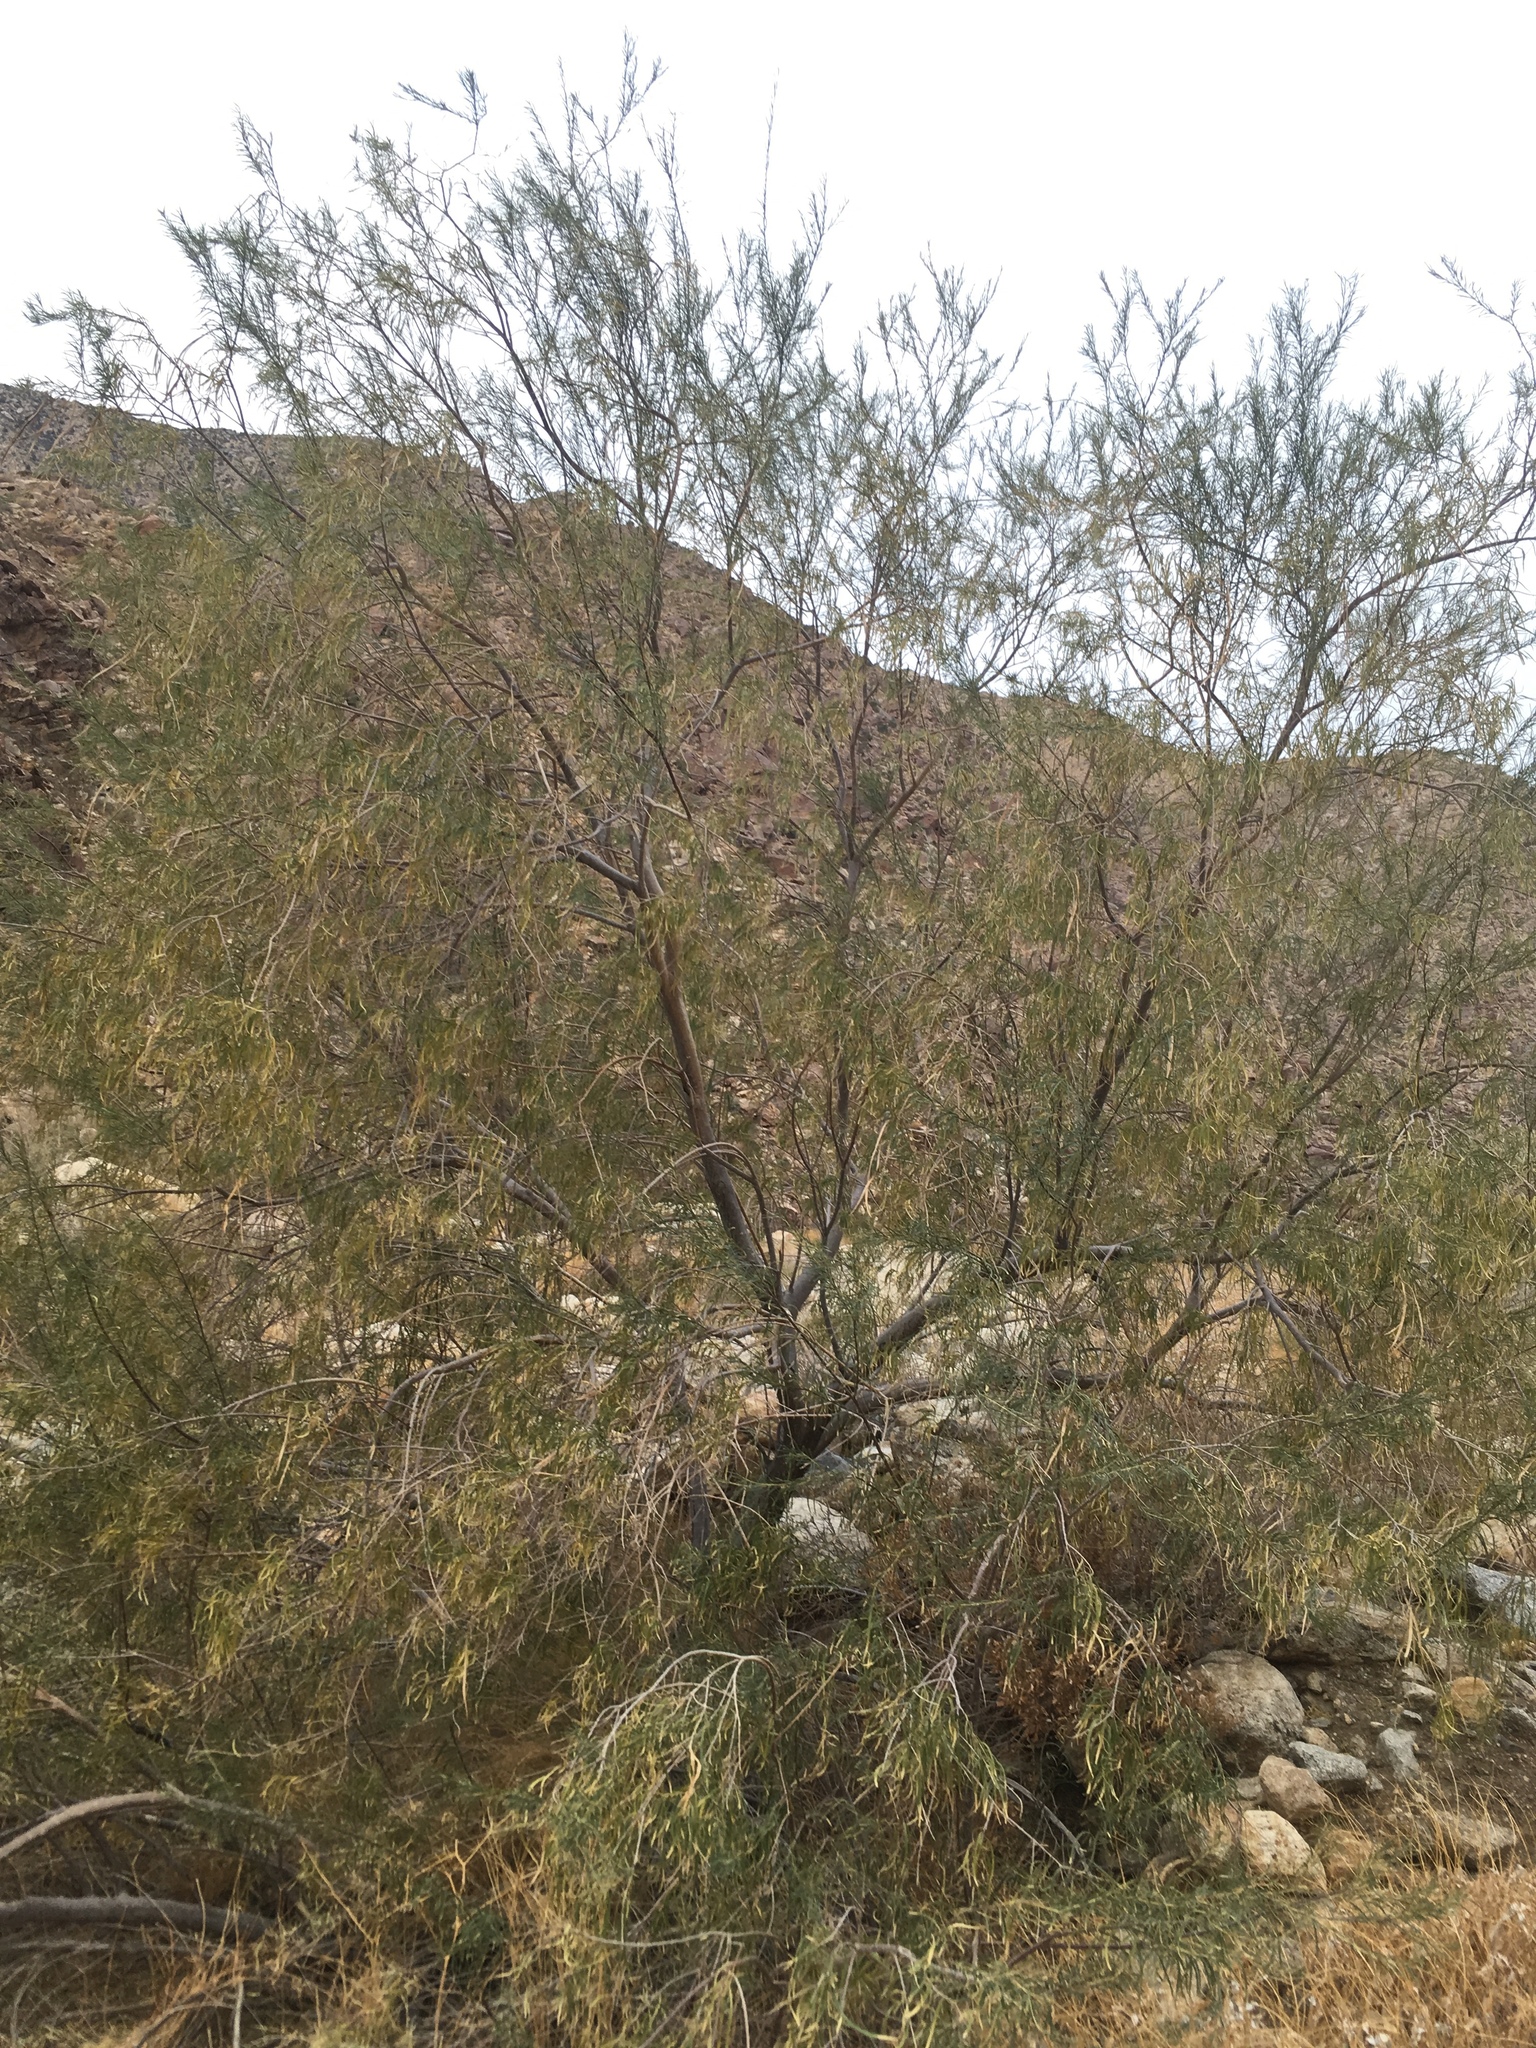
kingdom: Plantae
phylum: Tracheophyta
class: Magnoliopsida
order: Lamiales
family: Bignoniaceae
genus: Chilopsis
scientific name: Chilopsis linearis
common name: Desert-willow
